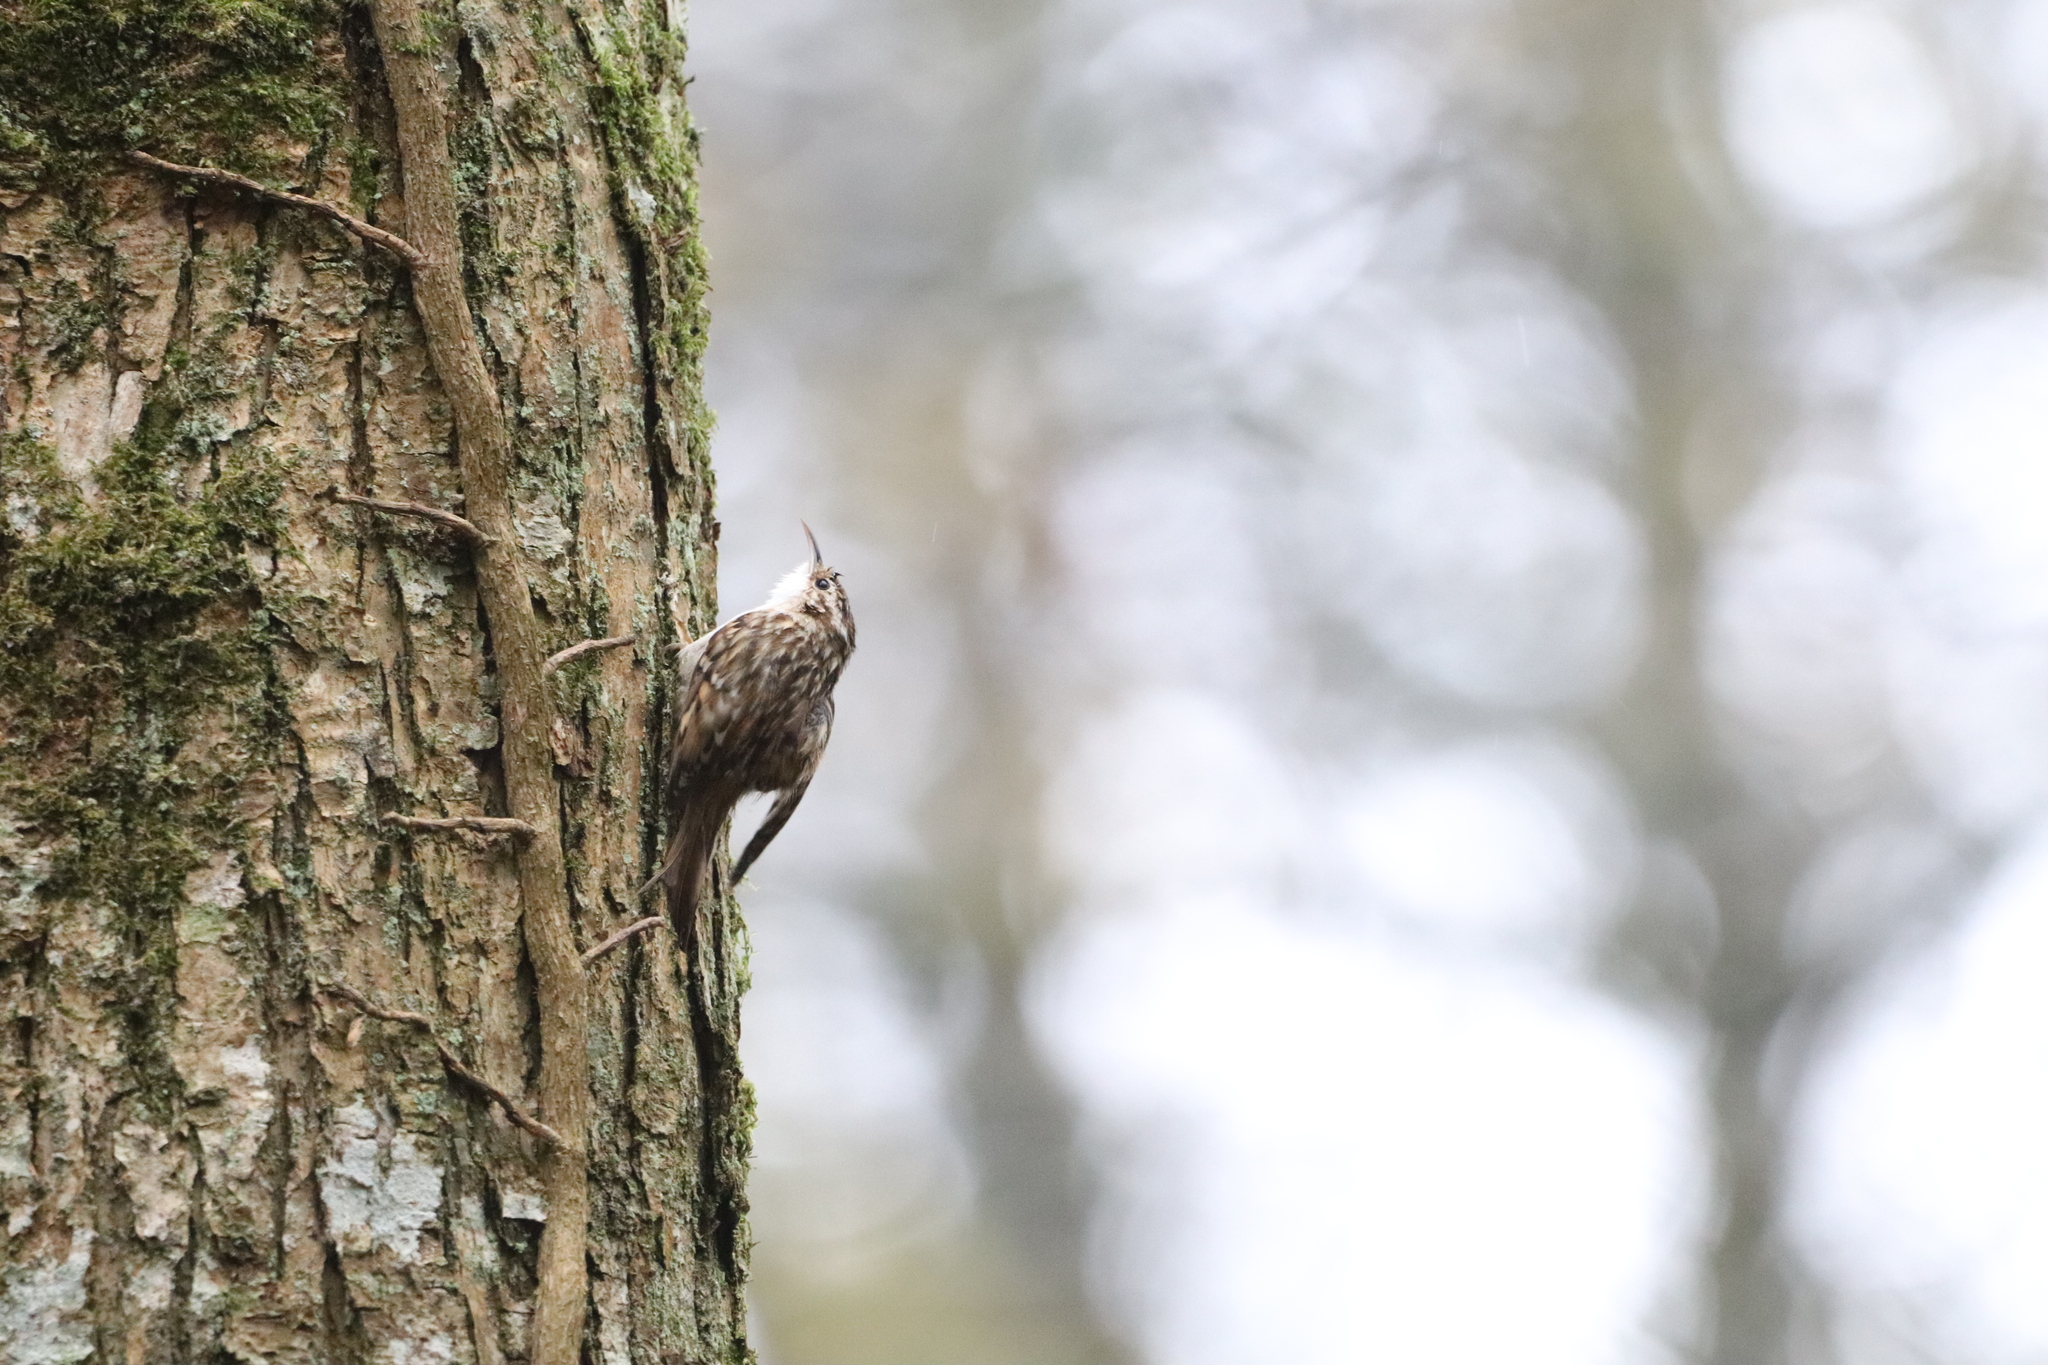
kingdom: Animalia
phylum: Chordata
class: Aves
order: Passeriformes
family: Certhiidae
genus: Certhia
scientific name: Certhia brachydactyla
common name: Short-toed treecreeper
